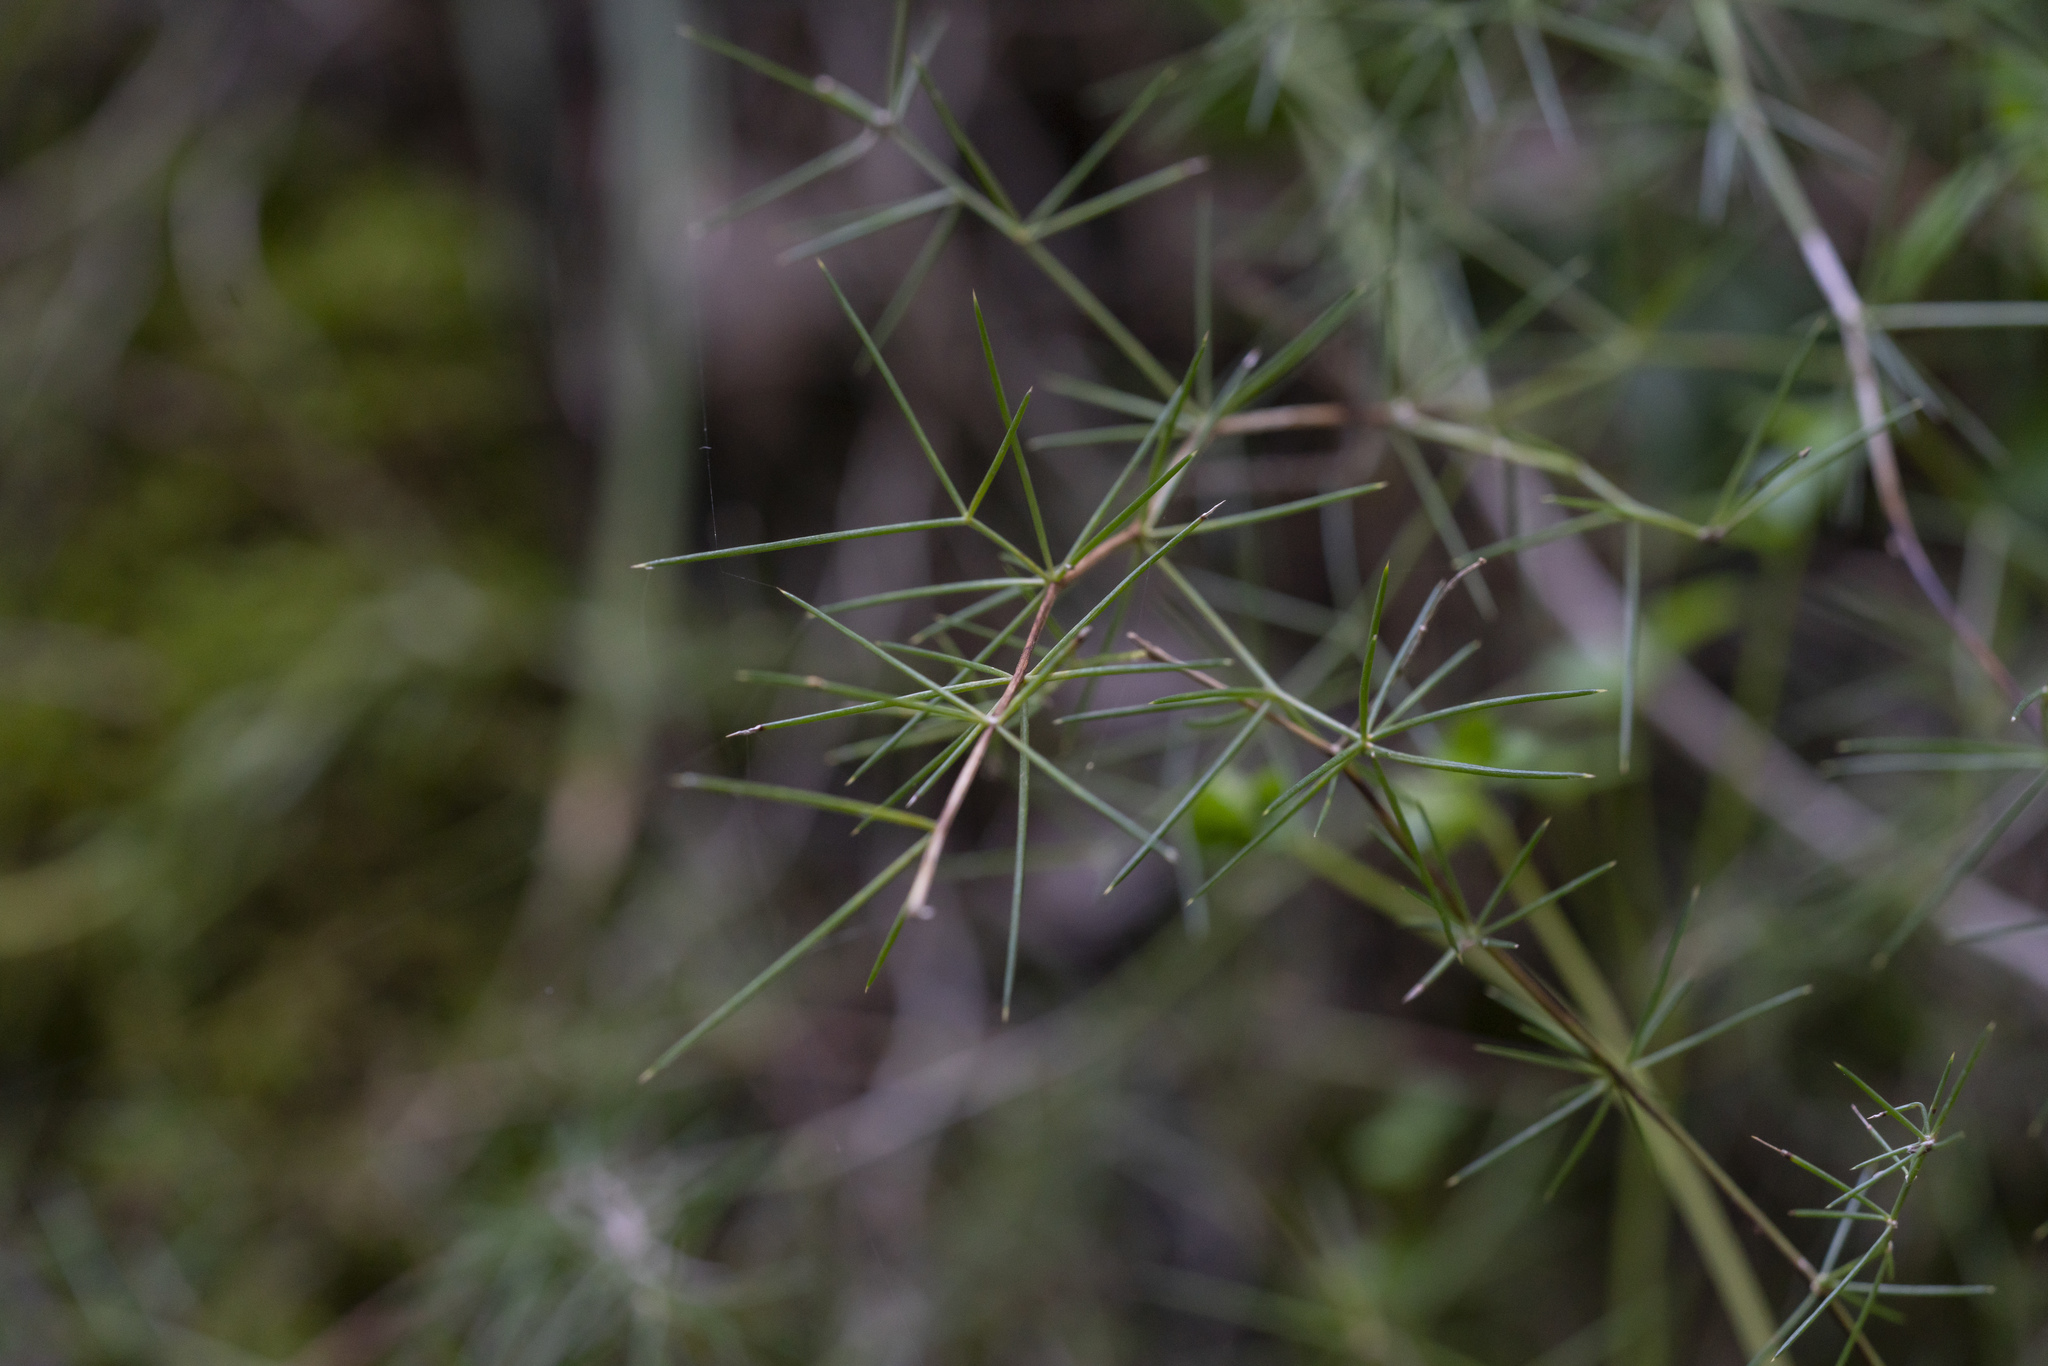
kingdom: Plantae
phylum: Tracheophyta
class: Liliopsida
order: Asparagales
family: Asparagaceae
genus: Asparagus
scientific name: Asparagus aphyllus
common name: Mediterranean asparagus
